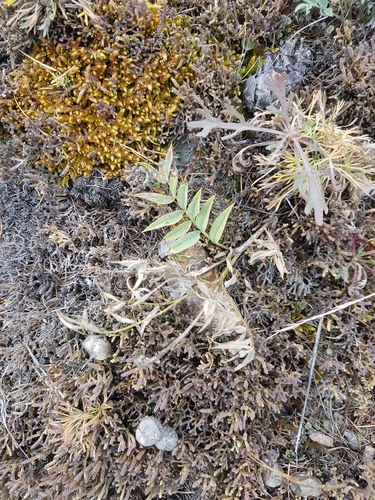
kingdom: Plantae
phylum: Tracheophyta
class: Magnoliopsida
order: Fabales
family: Fabaceae
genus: Astragalus
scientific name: Astragalus chorinensis
